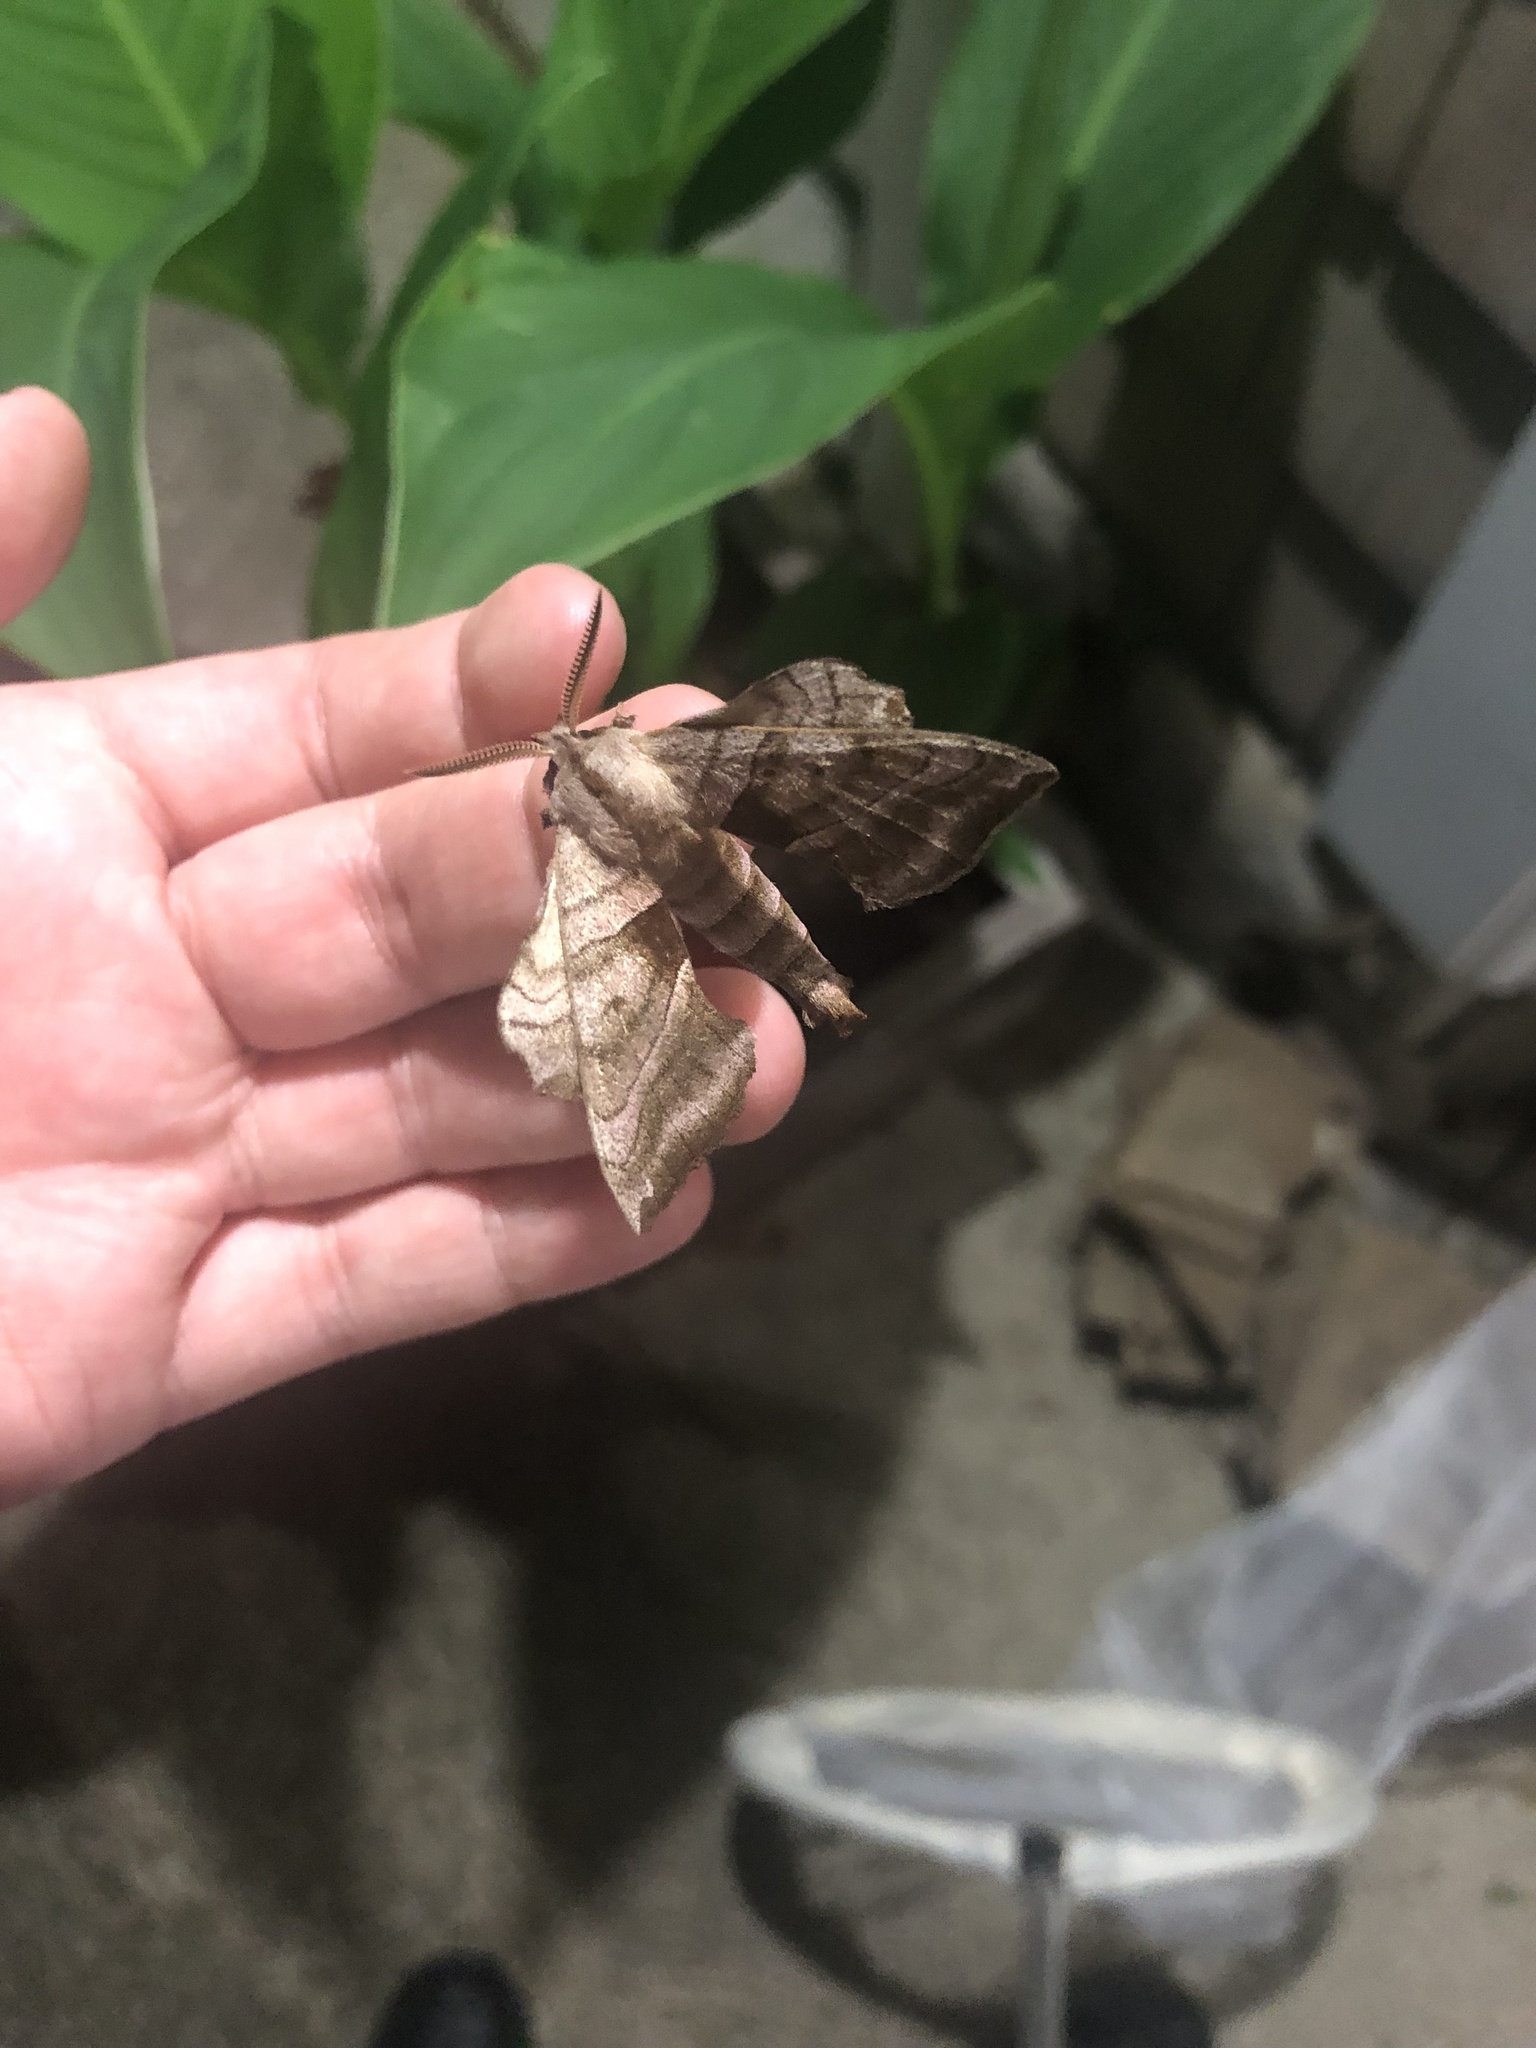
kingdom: Animalia
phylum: Arthropoda
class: Insecta
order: Lepidoptera
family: Sphingidae
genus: Amorpha
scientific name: Amorpha juglandis
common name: Walnut sphinx
